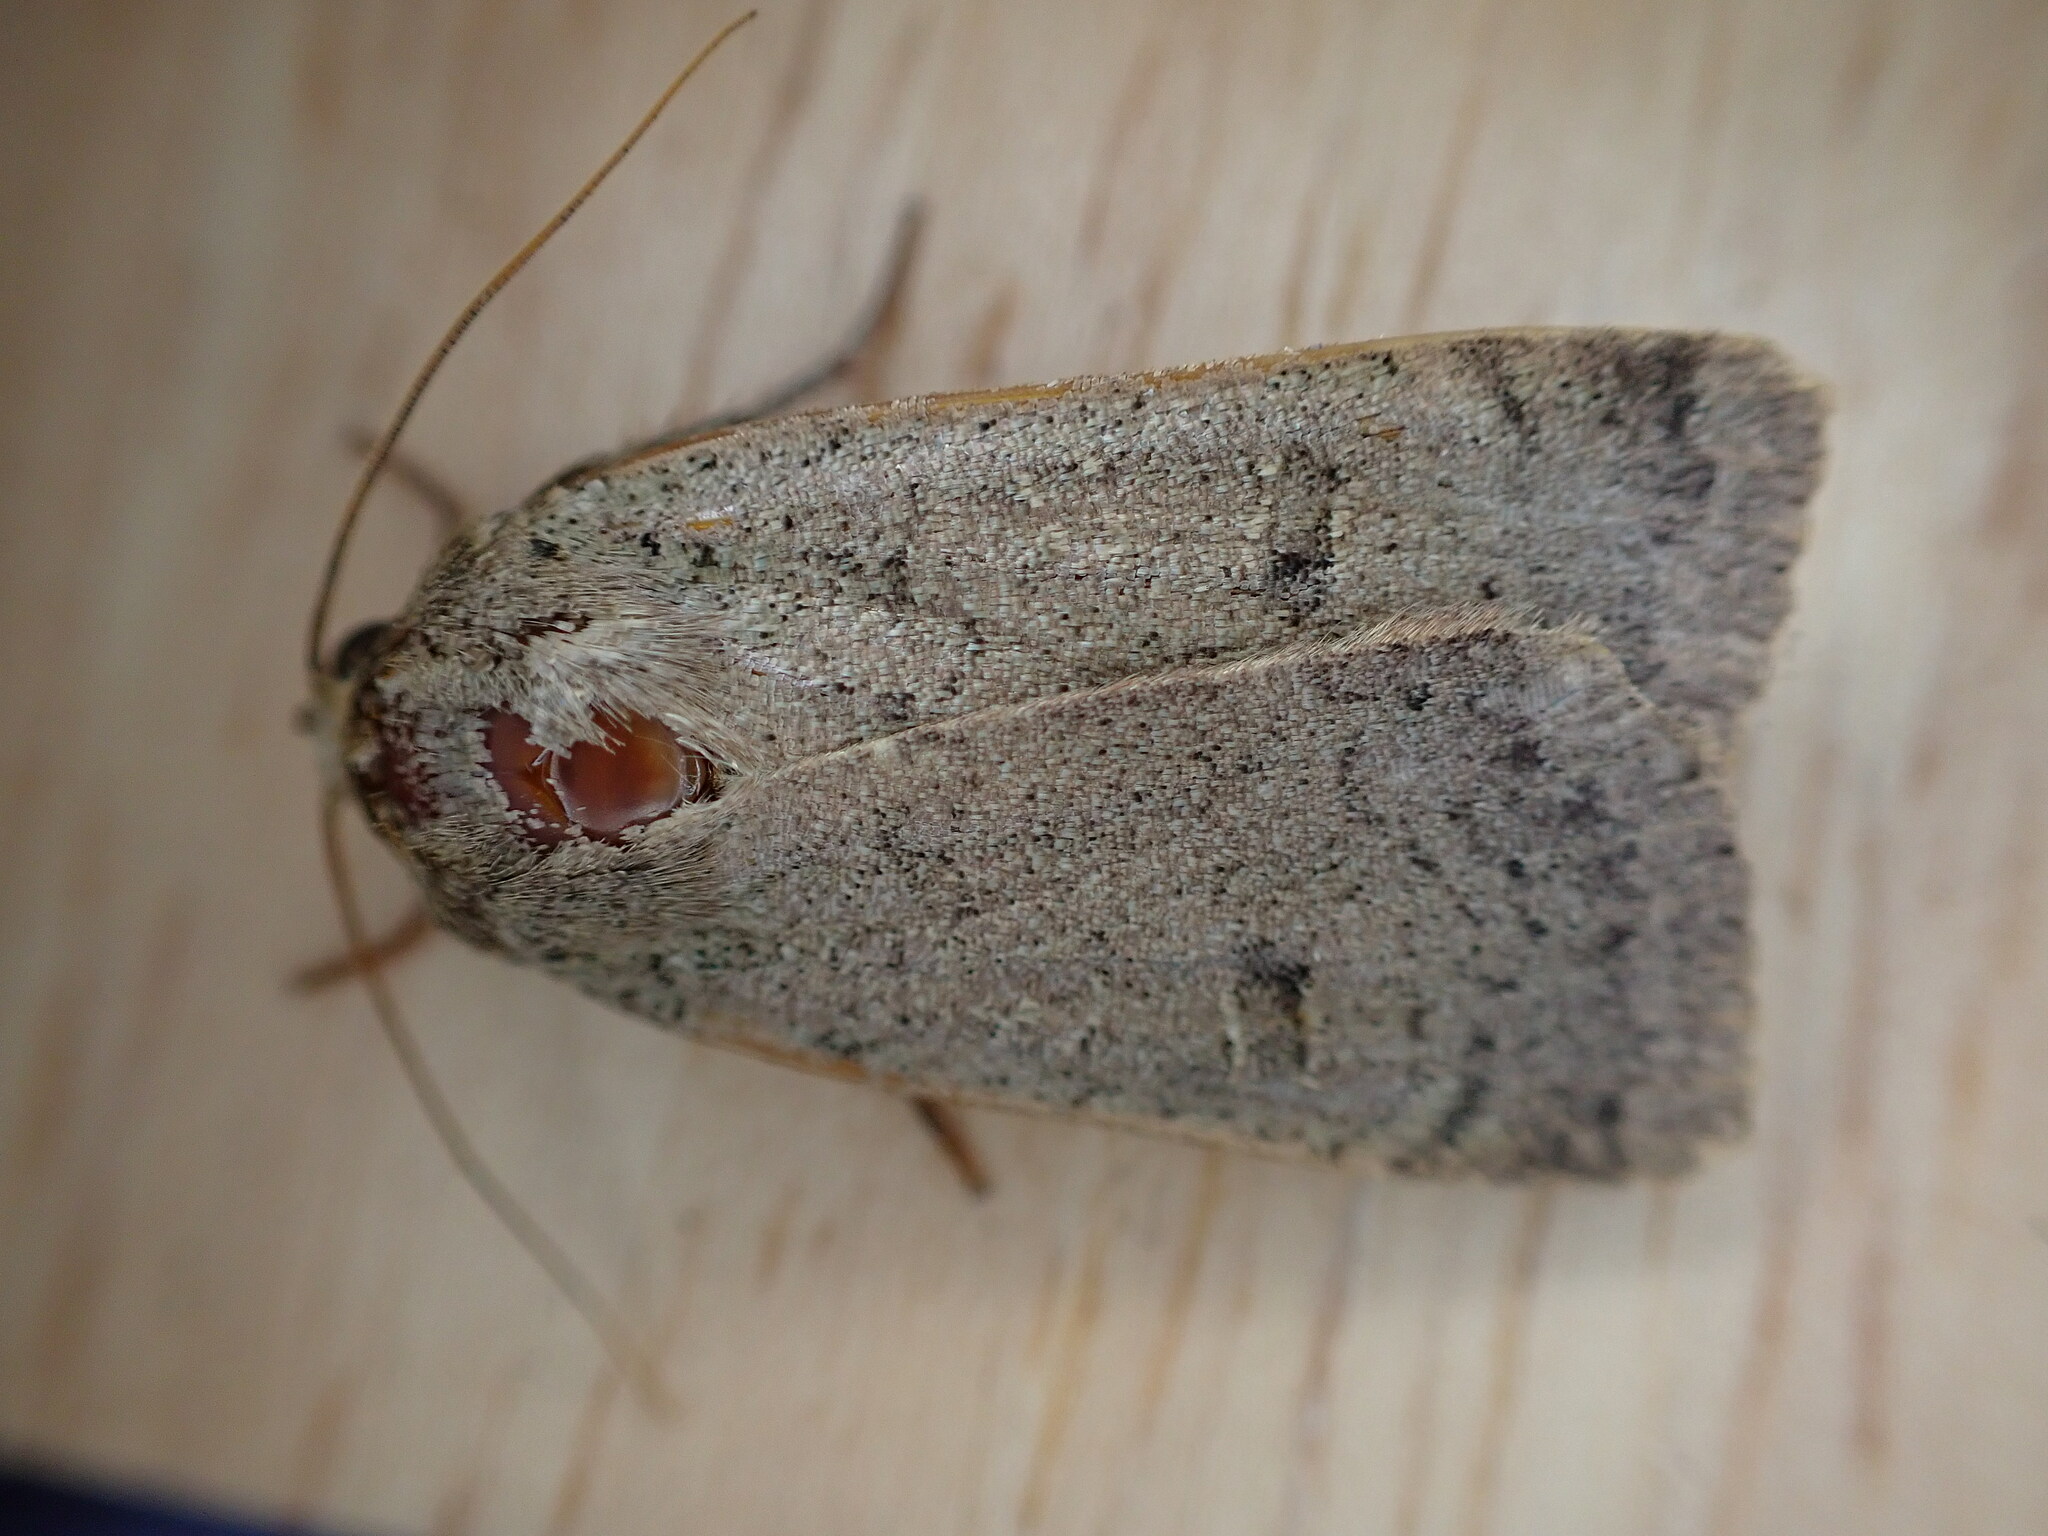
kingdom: Animalia
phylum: Arthropoda
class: Insecta
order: Lepidoptera
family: Noctuidae
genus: Noctua
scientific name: Noctua comes
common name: Lesser yellow underwing
